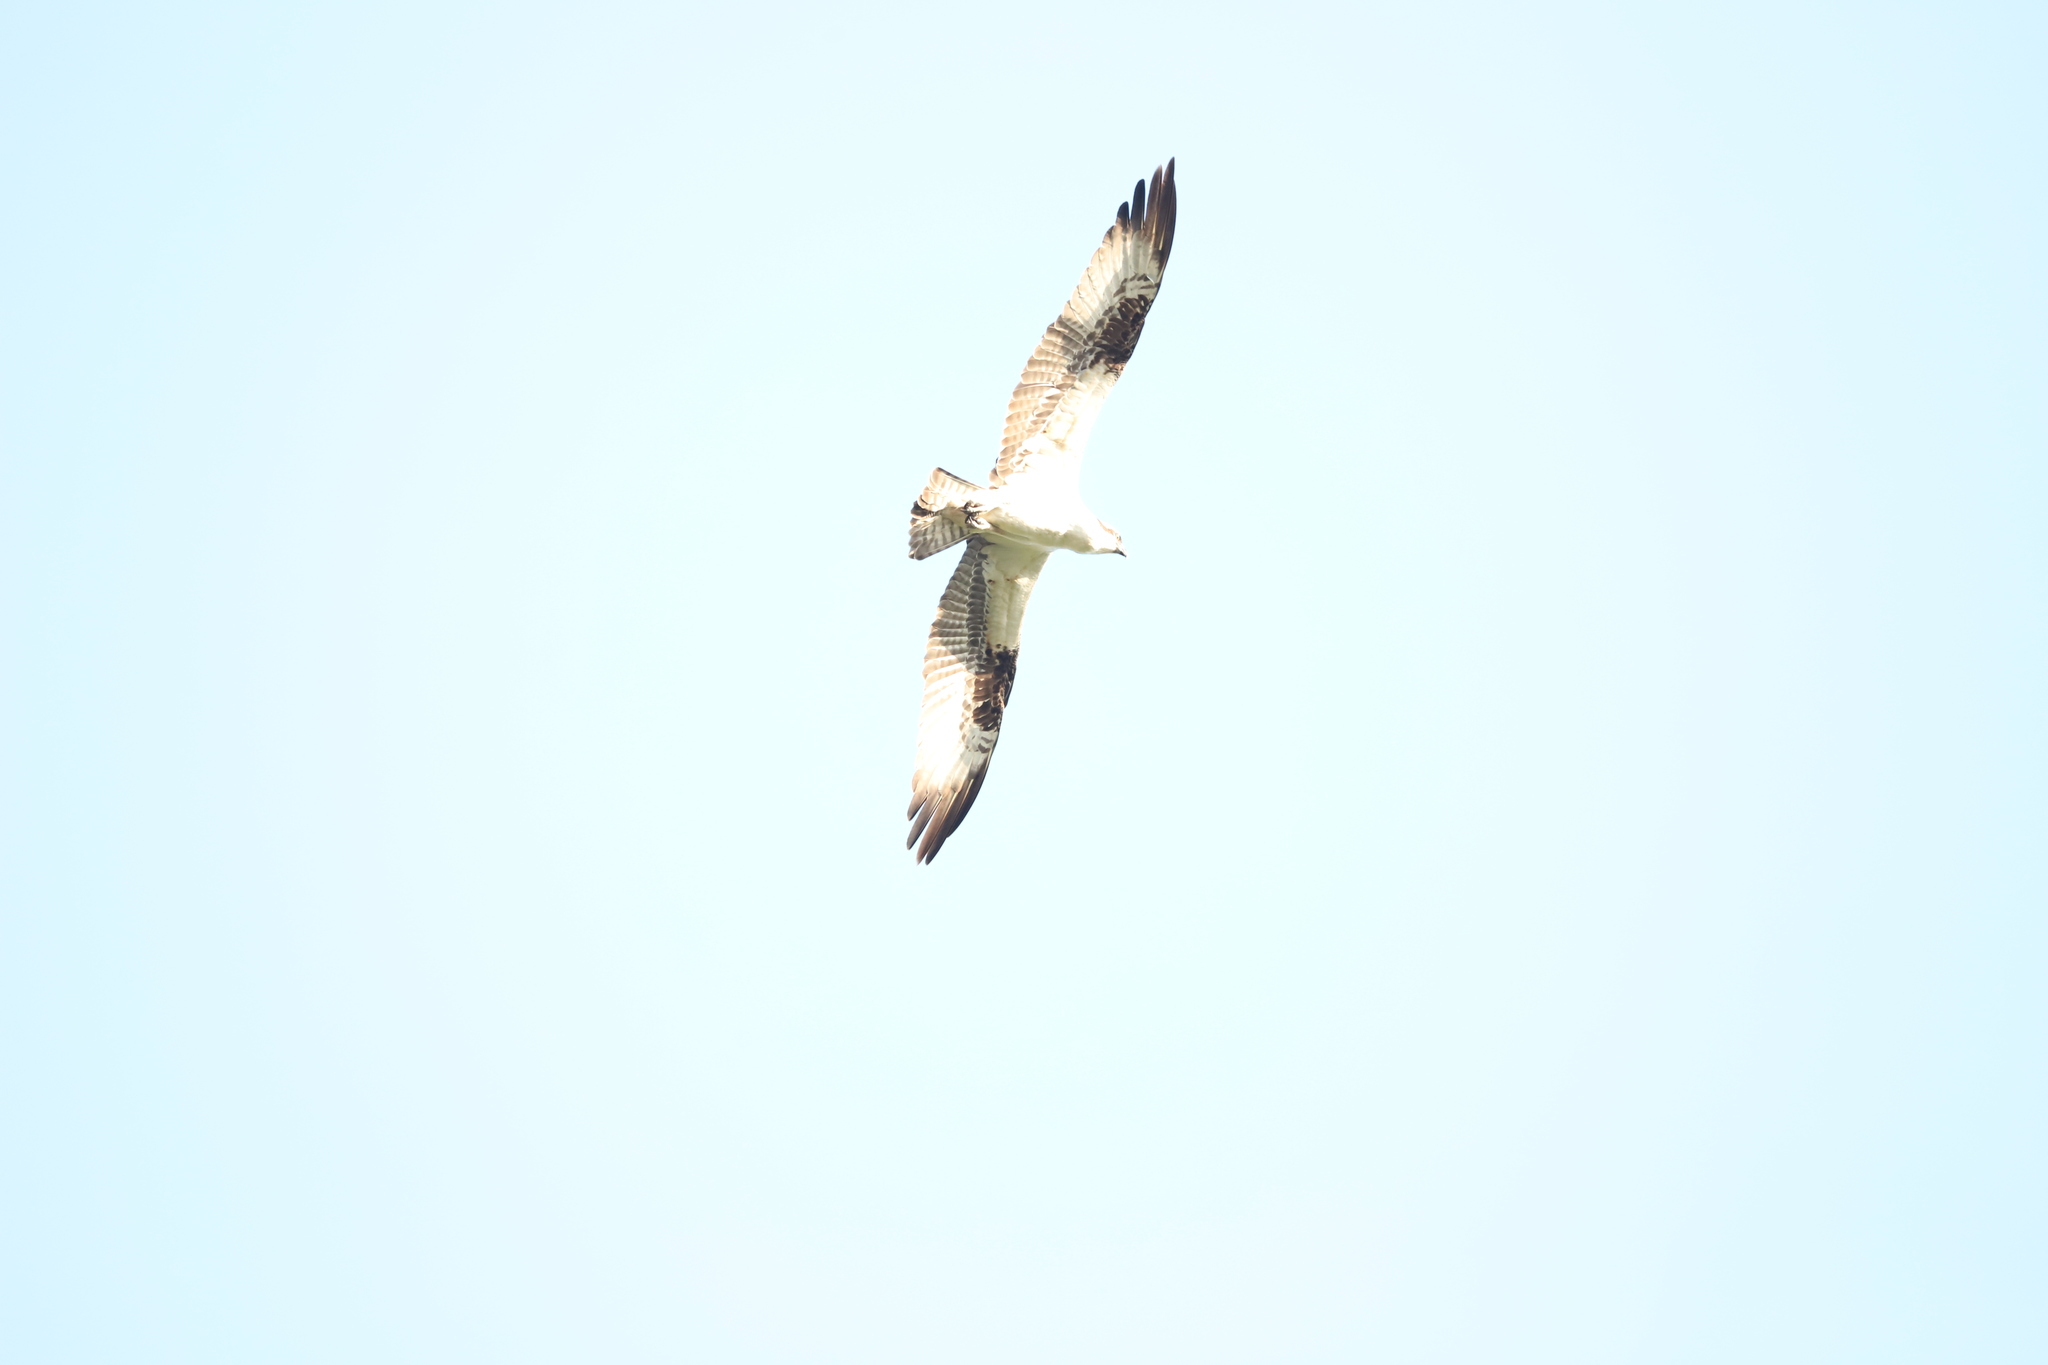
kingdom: Animalia
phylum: Chordata
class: Aves
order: Accipitriformes
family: Pandionidae
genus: Pandion
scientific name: Pandion haliaetus
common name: Osprey
